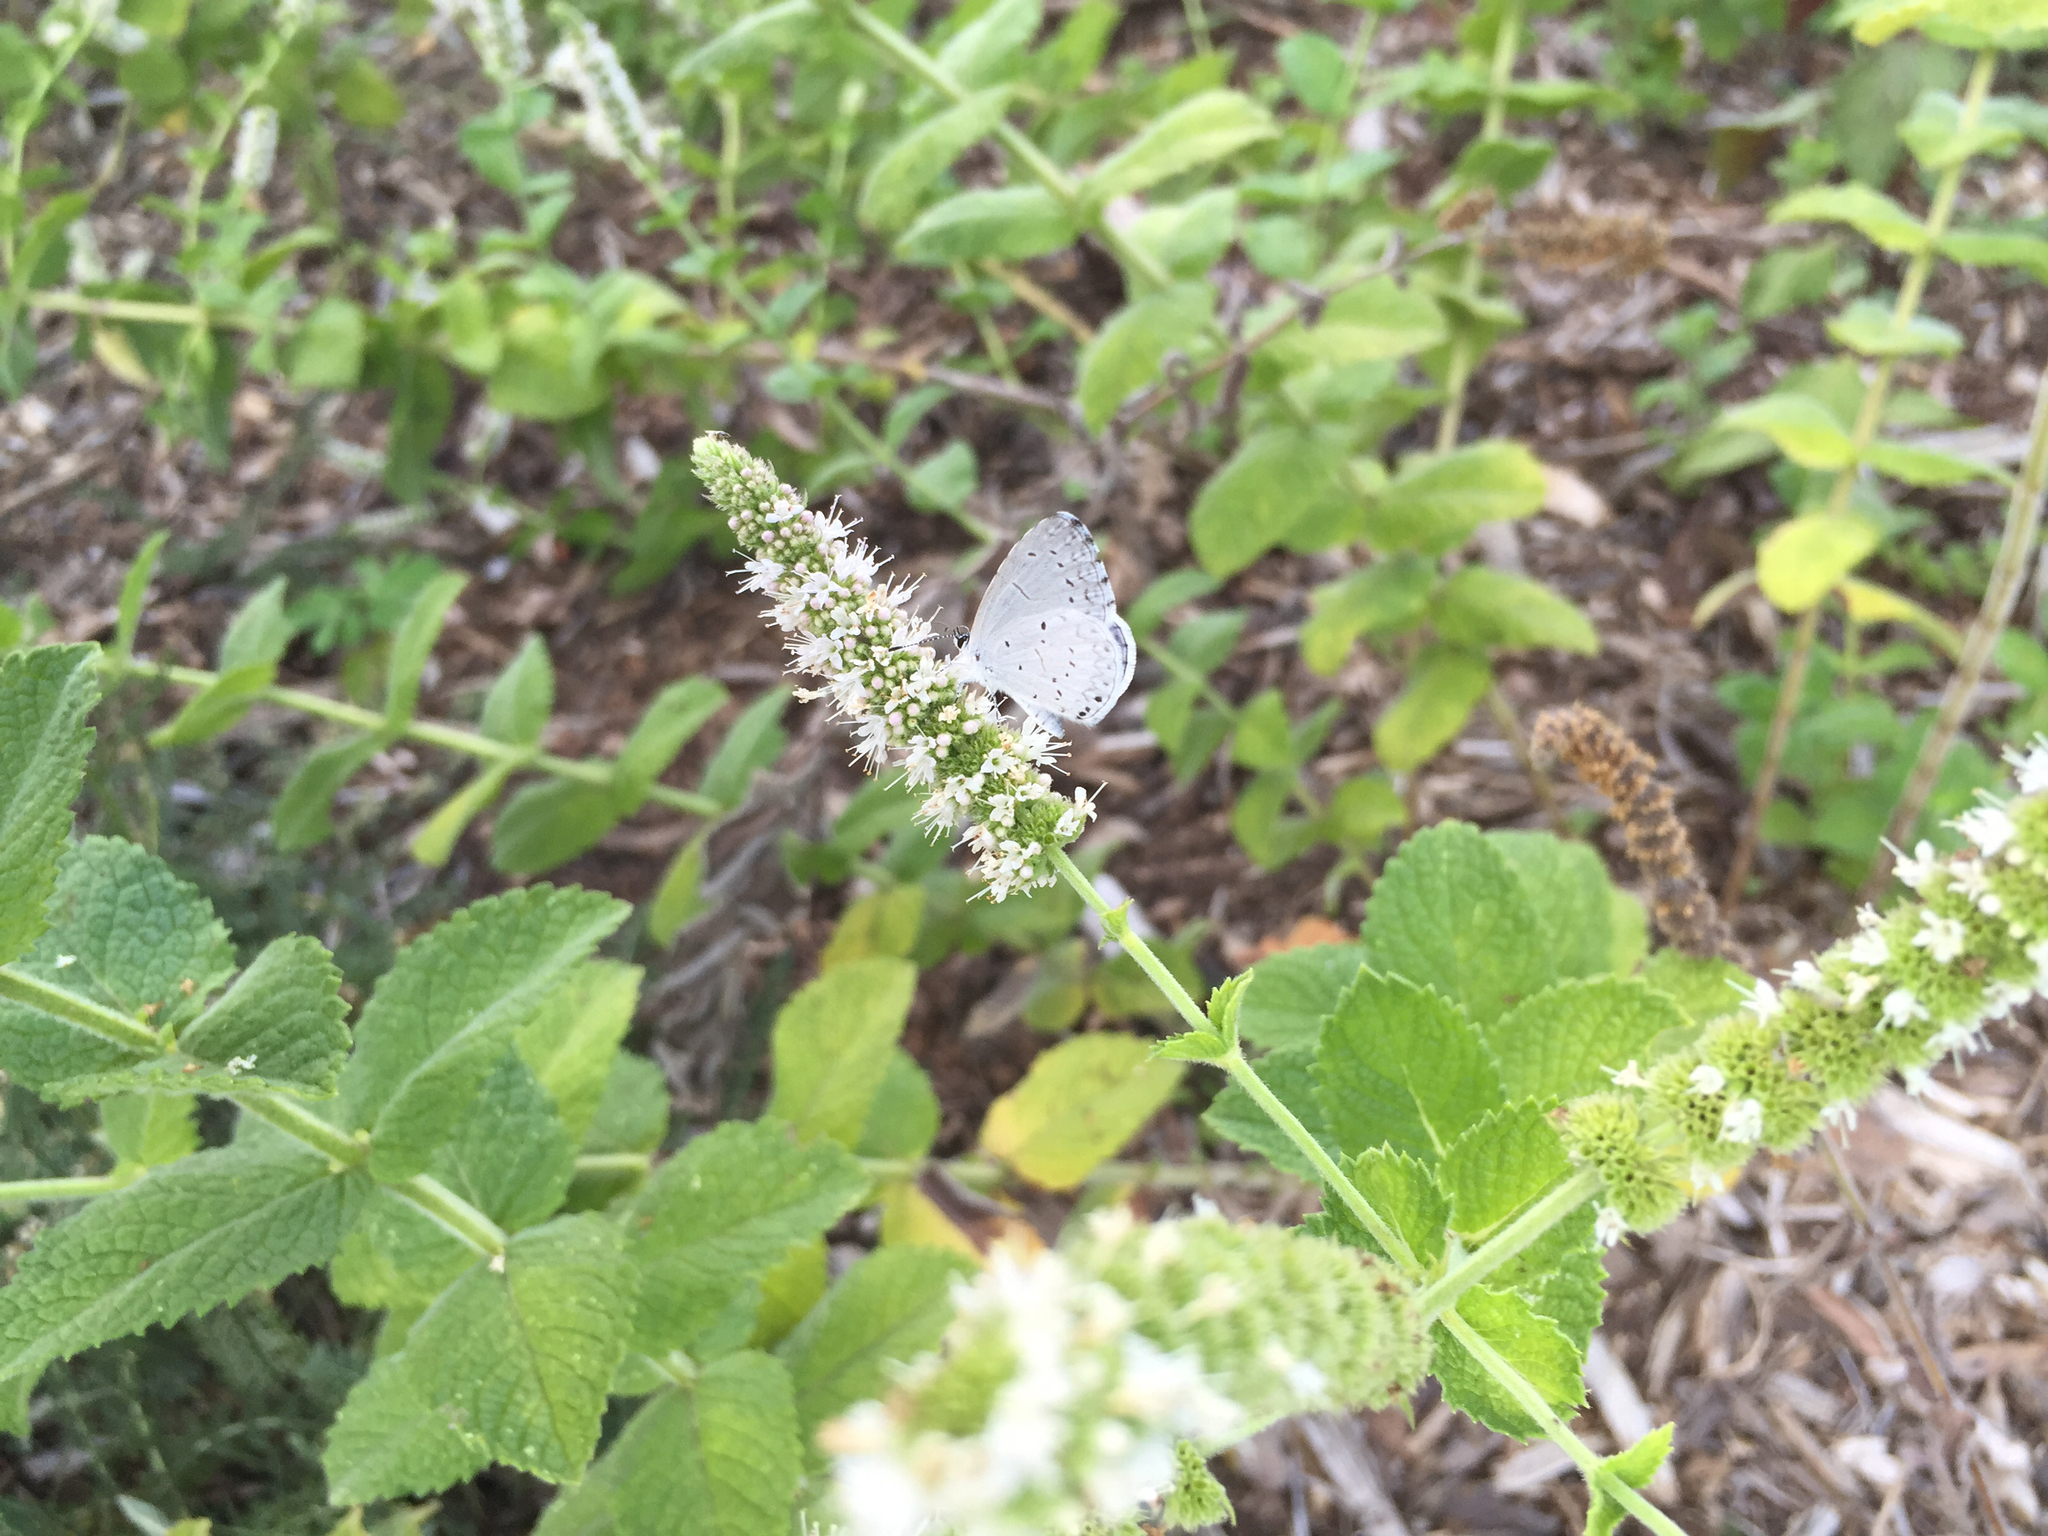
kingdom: Animalia
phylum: Arthropoda
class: Insecta
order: Lepidoptera
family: Lycaenidae
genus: Cyaniris
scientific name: Cyaniris neglecta
